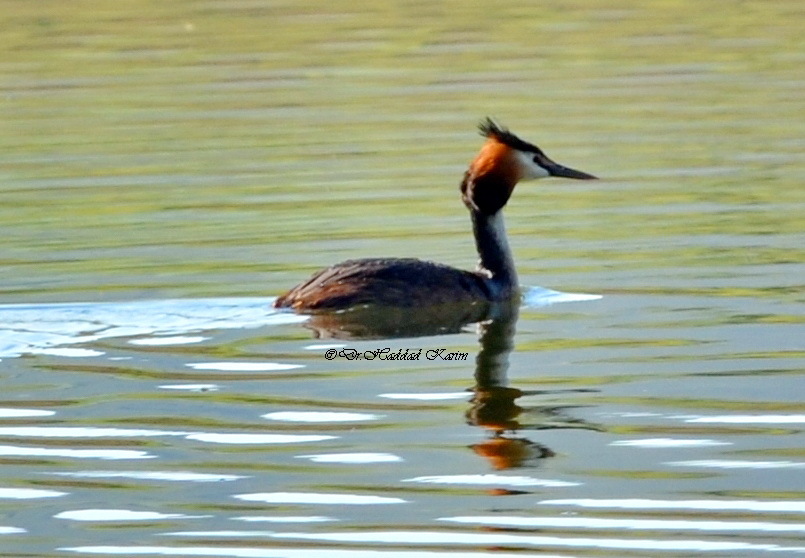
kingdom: Animalia
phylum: Chordata
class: Aves
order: Podicipediformes
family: Podicipedidae
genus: Podiceps
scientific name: Podiceps cristatus
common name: Great crested grebe
